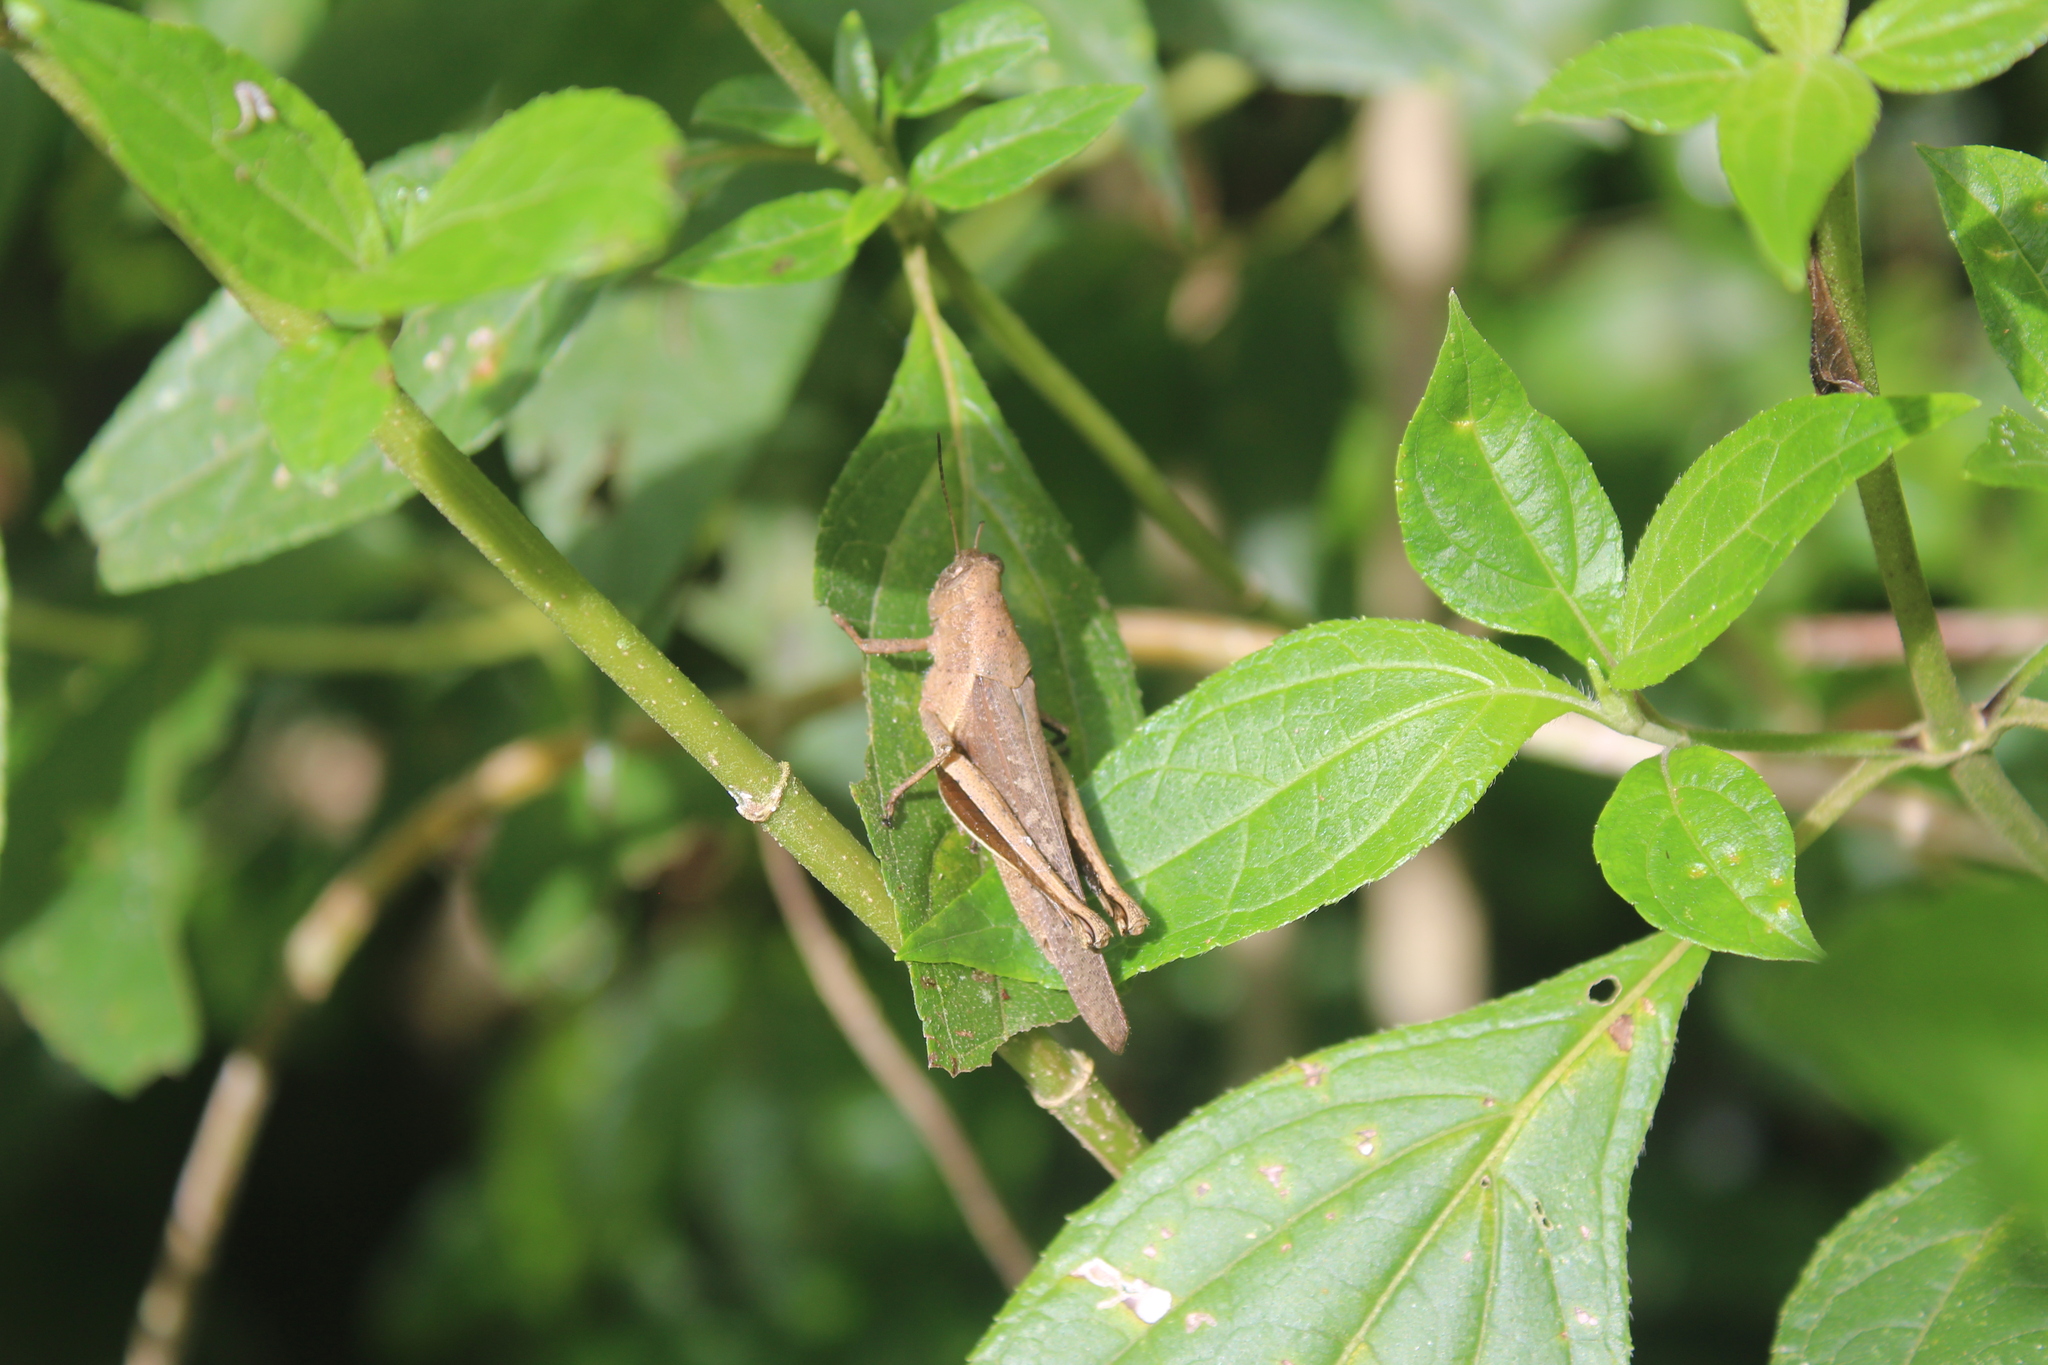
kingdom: Animalia
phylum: Arthropoda
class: Insecta
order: Orthoptera
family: Acrididae
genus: Abracris
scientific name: Abracris flavolineata
